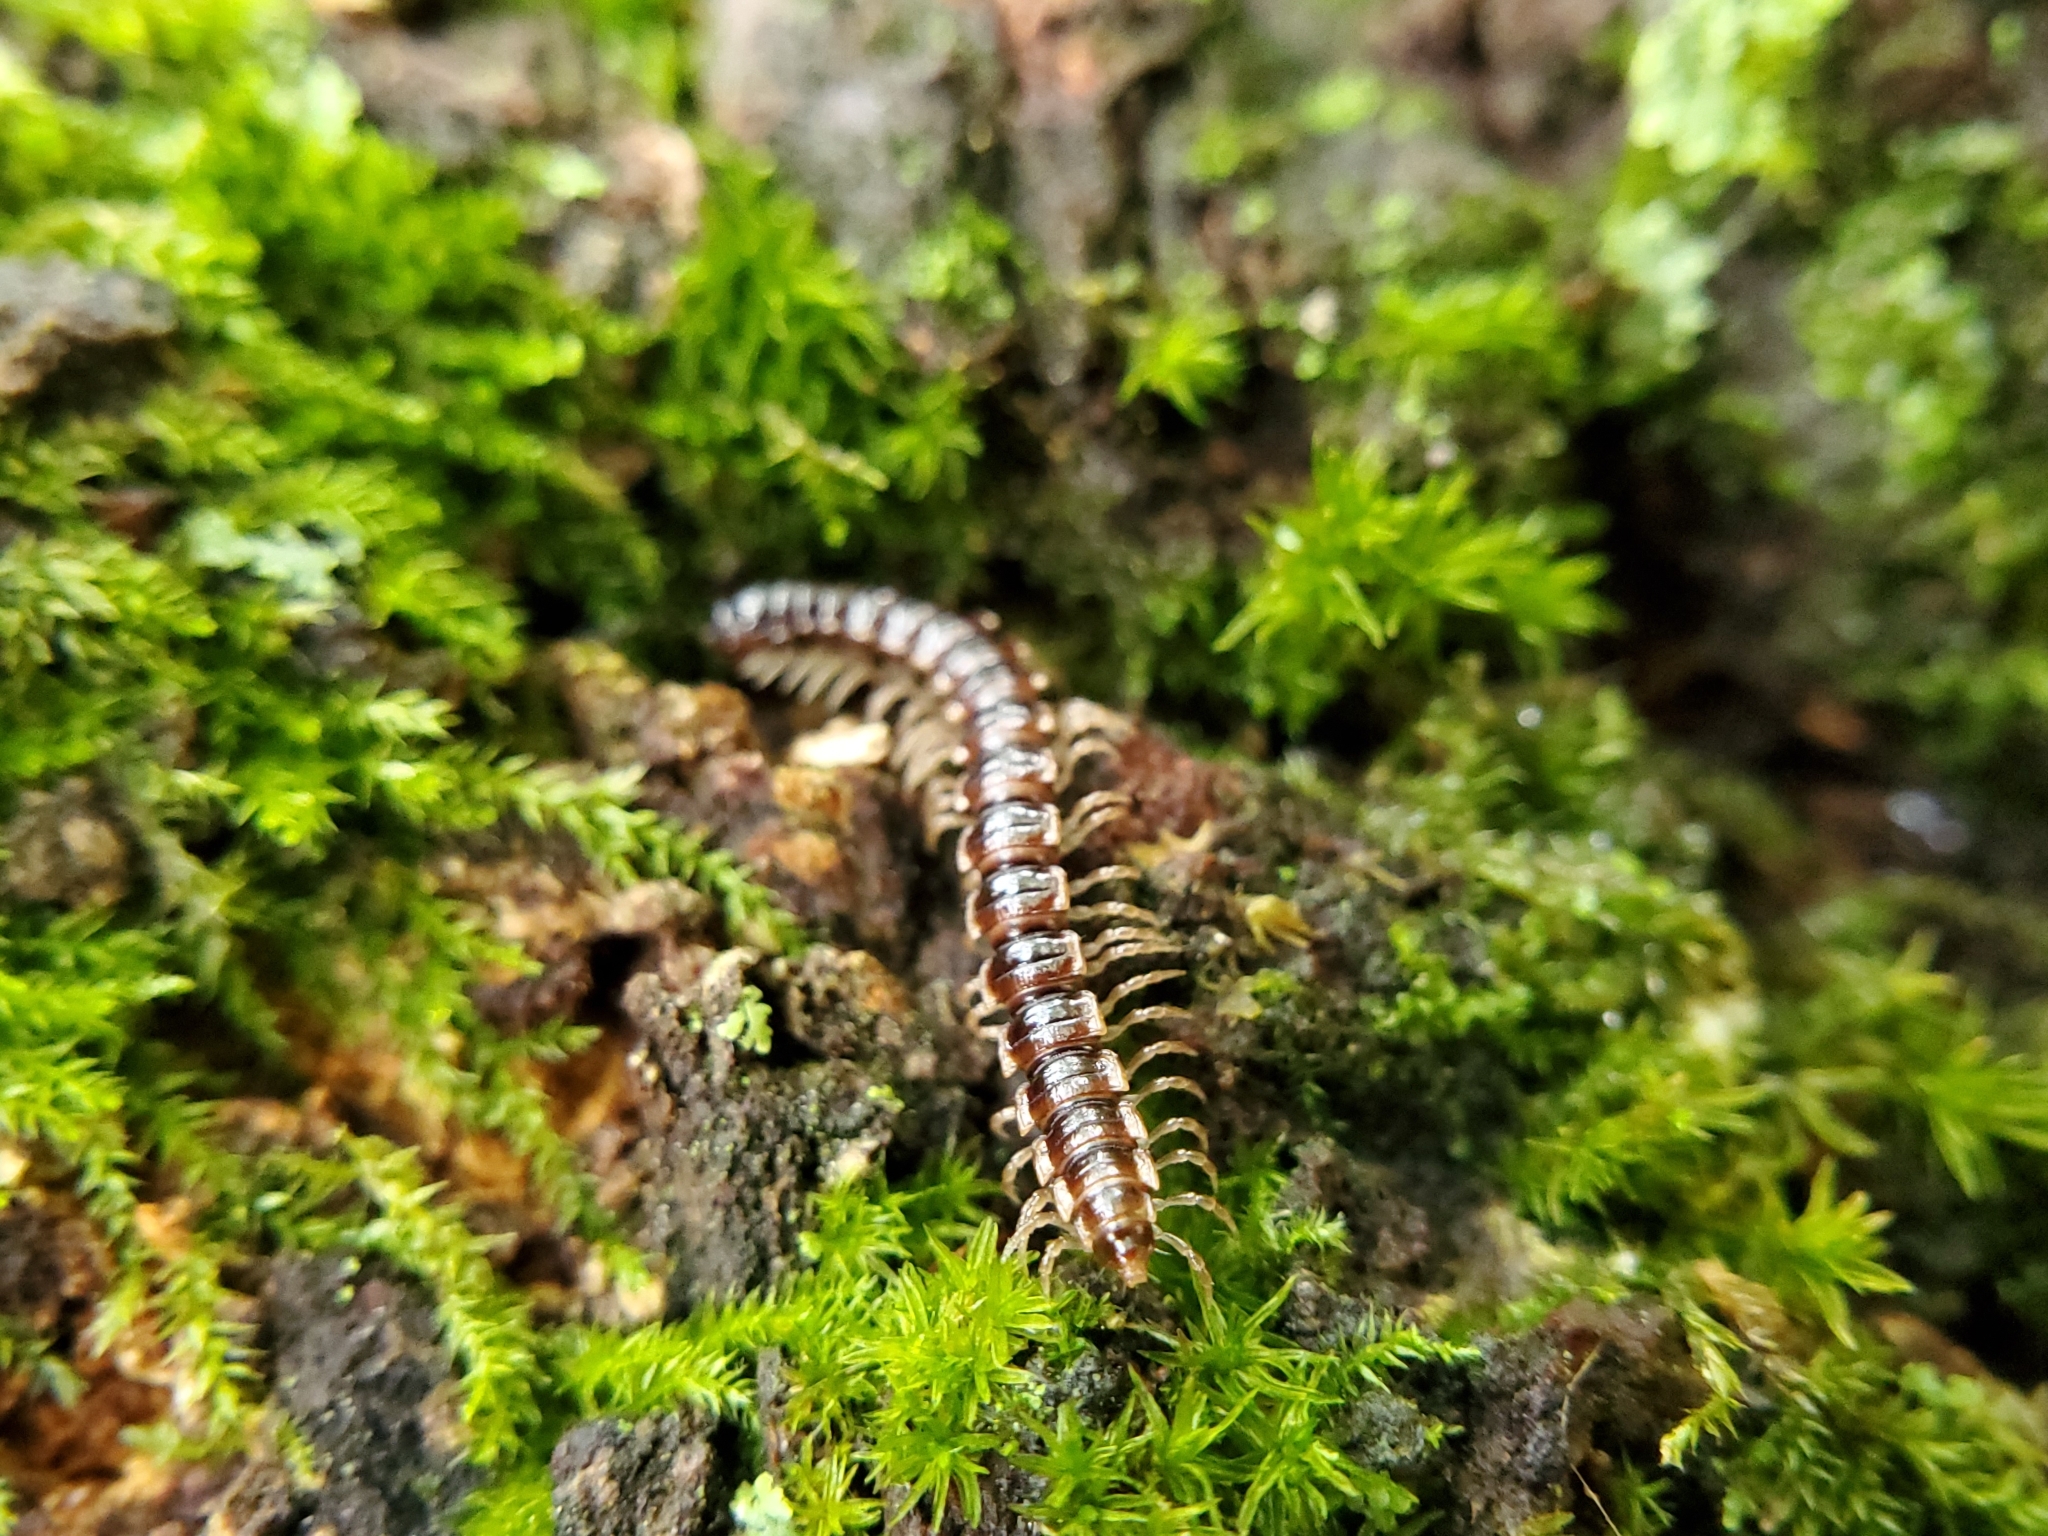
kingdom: Animalia
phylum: Arthropoda
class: Diplopoda
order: Polydesmida
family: Paradoxosomatidae
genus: Oxidus
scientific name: Oxidus gracilis
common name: Greenhouse millipede
